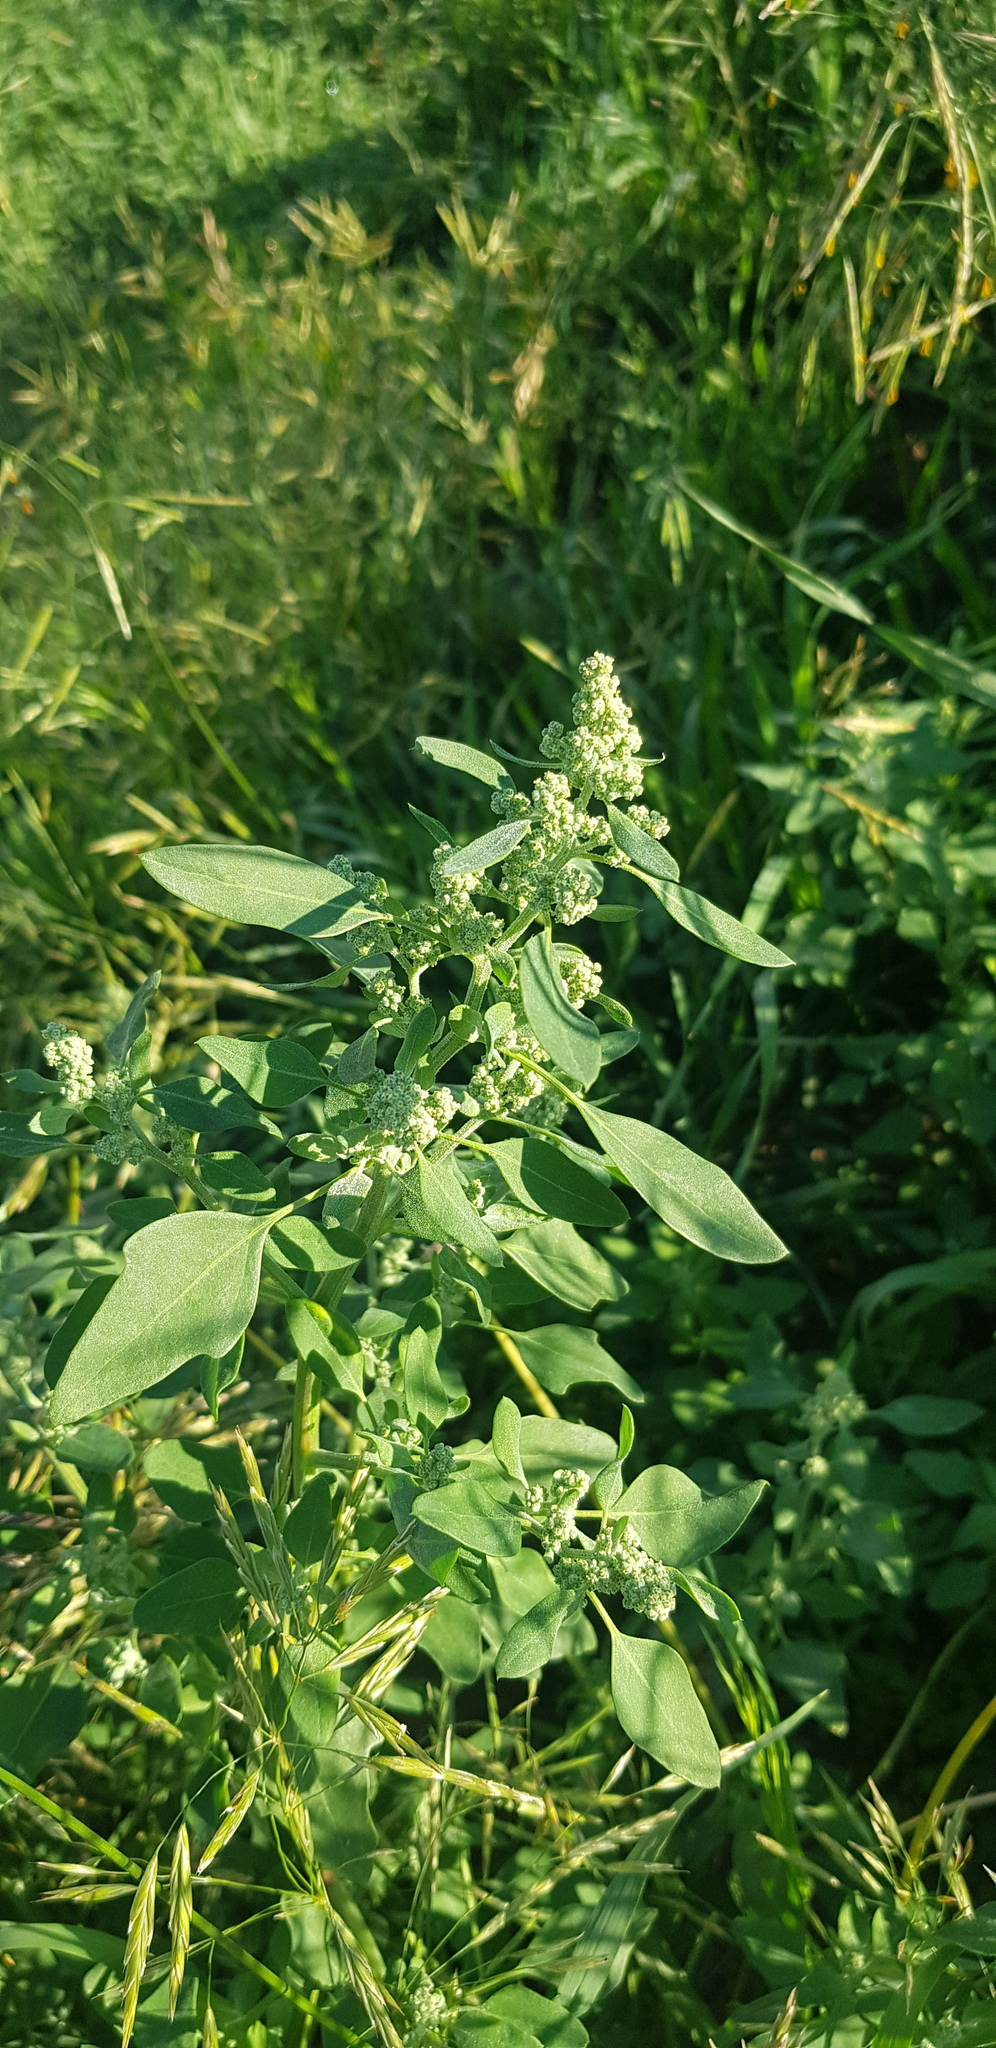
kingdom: Plantae
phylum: Tracheophyta
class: Magnoliopsida
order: Caryophyllales
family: Amaranthaceae
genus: Chenopodium
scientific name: Chenopodium album
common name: Fat-hen
